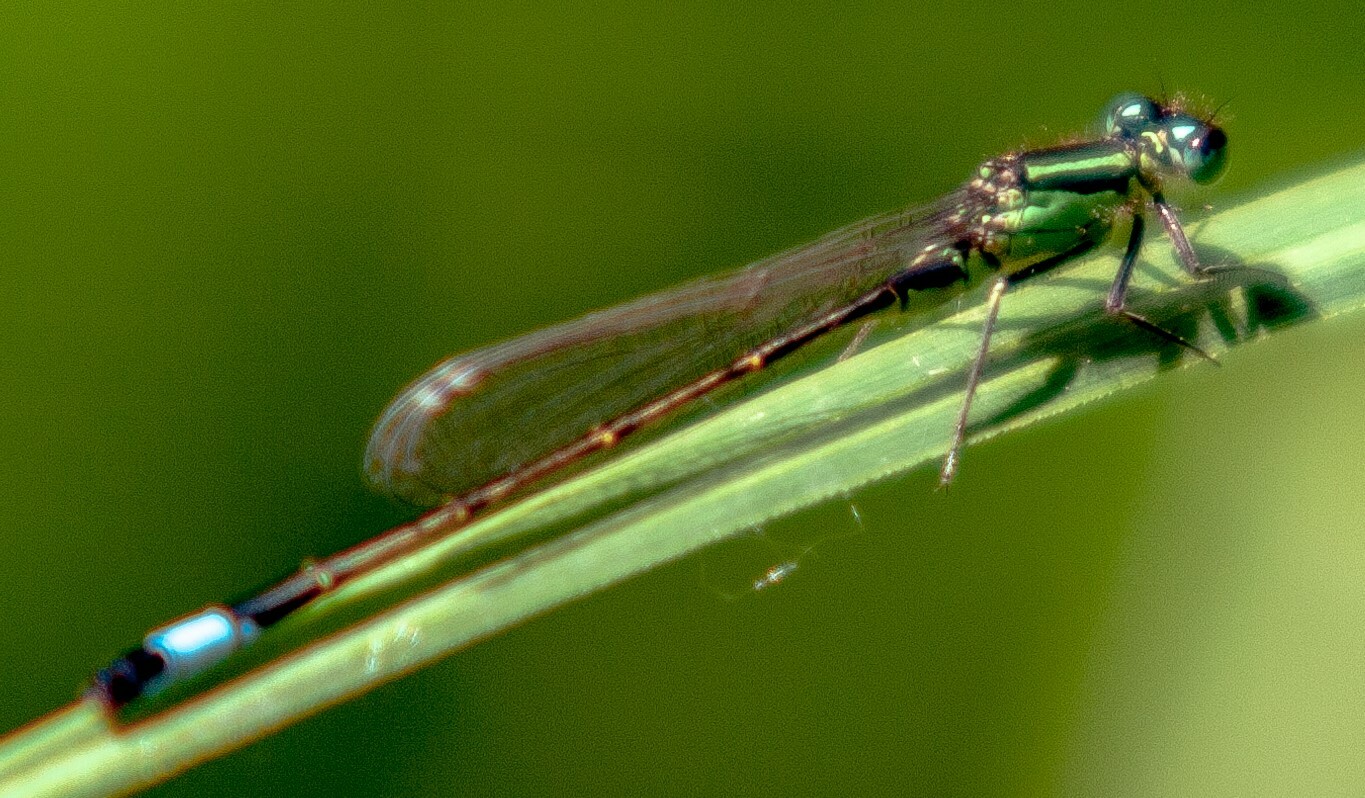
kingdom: Animalia
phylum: Arthropoda
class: Insecta
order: Odonata
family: Coenagrionidae
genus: Ischnura
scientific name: Ischnura elegans
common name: Blue-tailed damselfly
